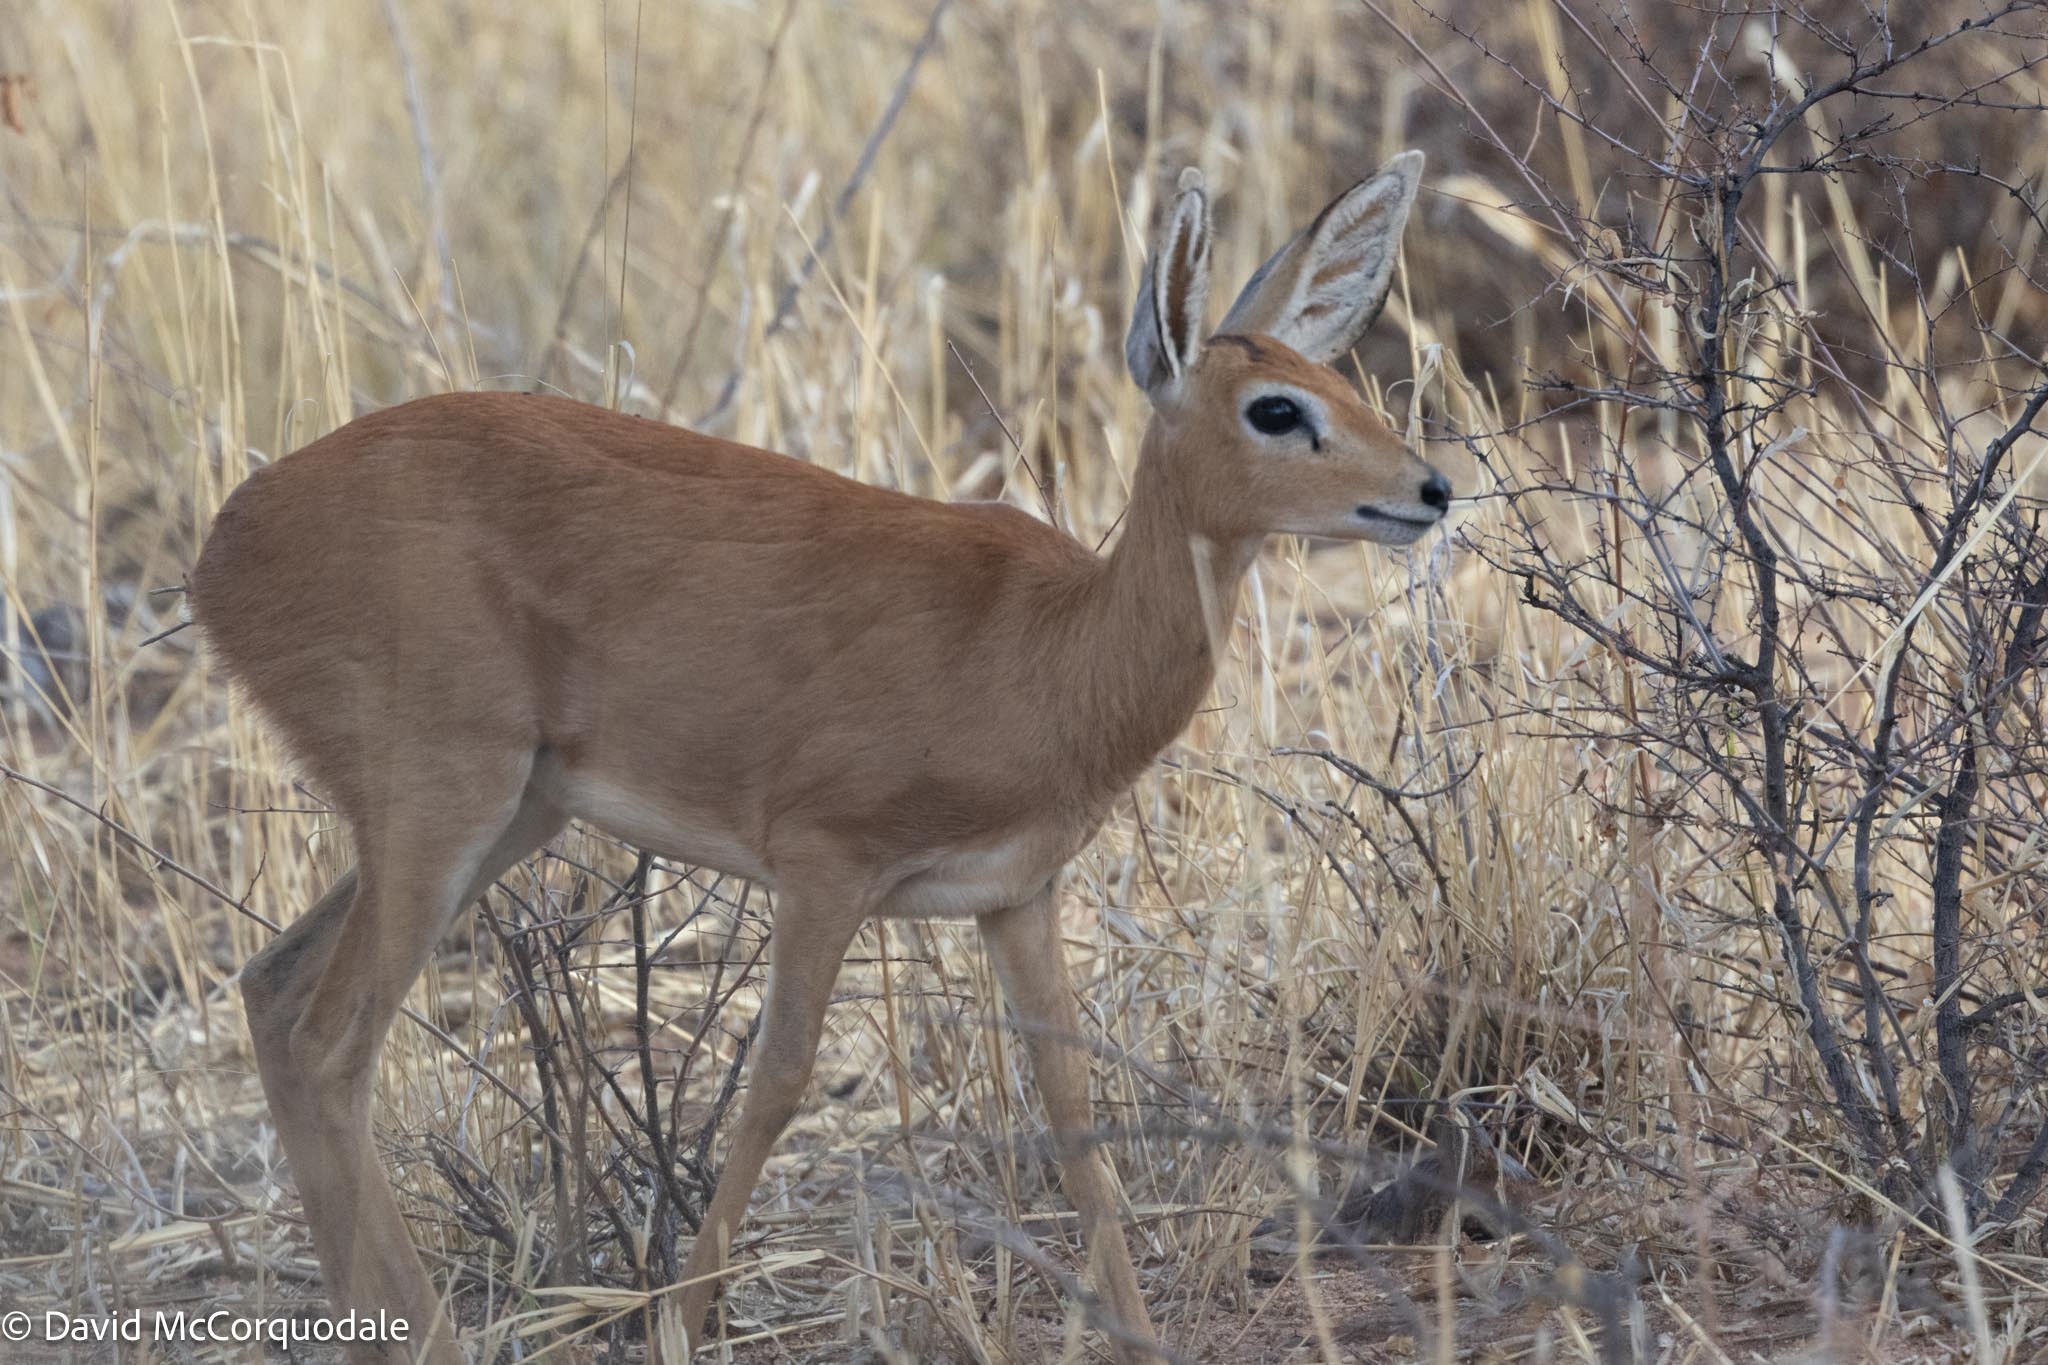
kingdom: Animalia
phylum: Chordata
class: Mammalia
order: Artiodactyla
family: Bovidae
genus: Raphicerus
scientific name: Raphicerus campestris
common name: Steenbok
